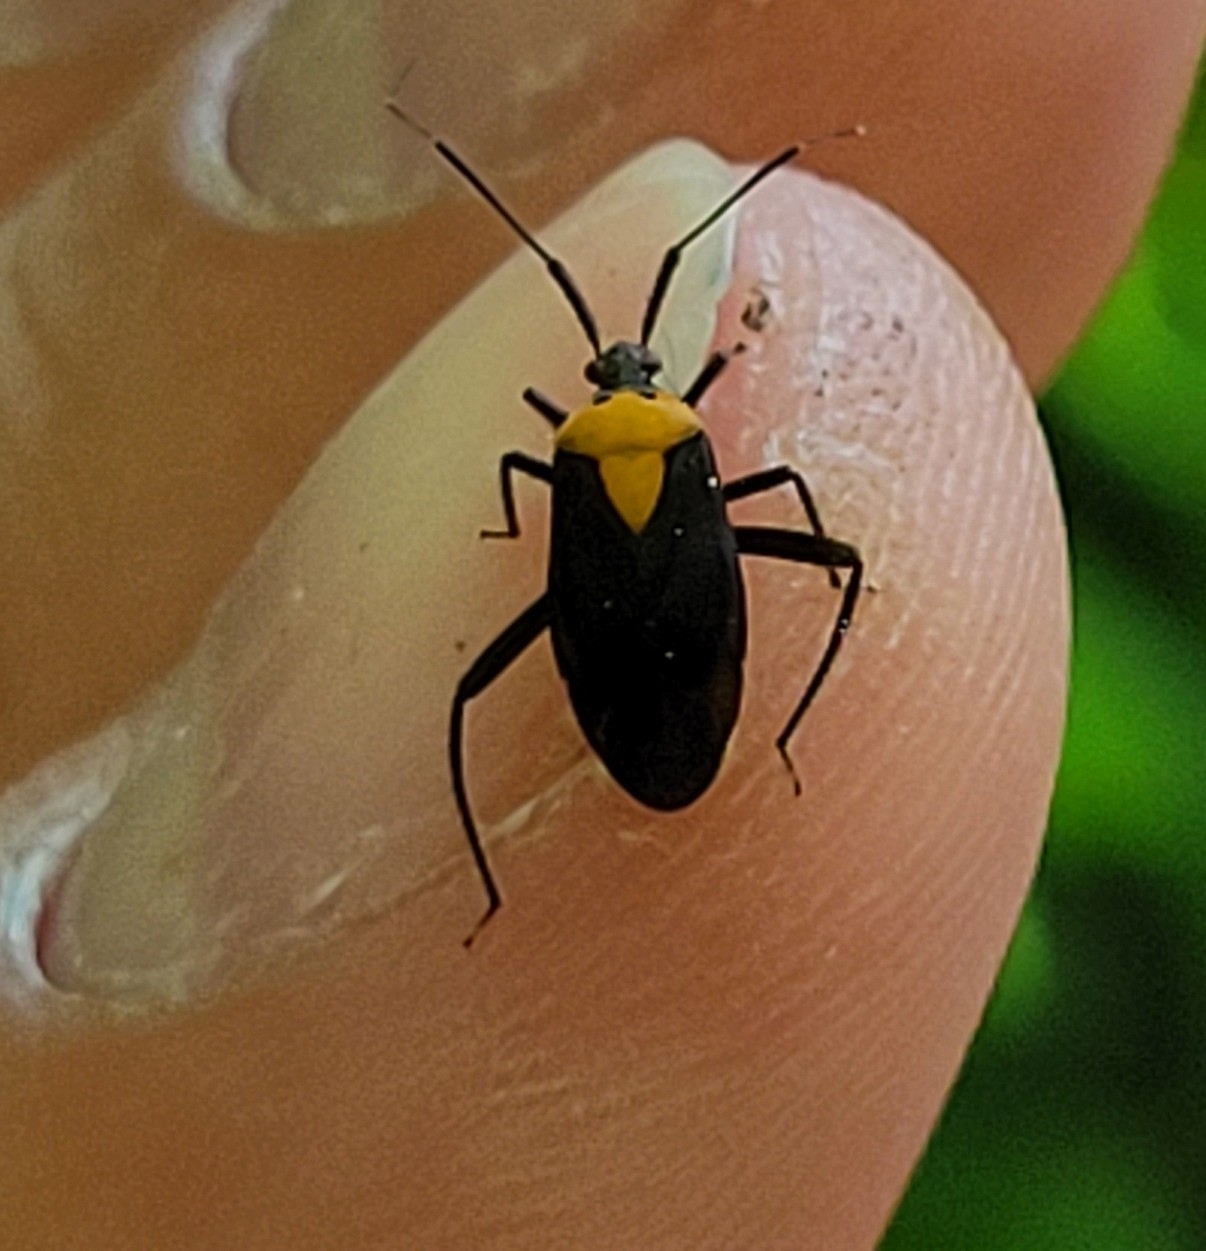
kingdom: Animalia
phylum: Arthropoda
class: Insecta
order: Hemiptera
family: Miridae
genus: Prepops
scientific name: Prepops insitivus
